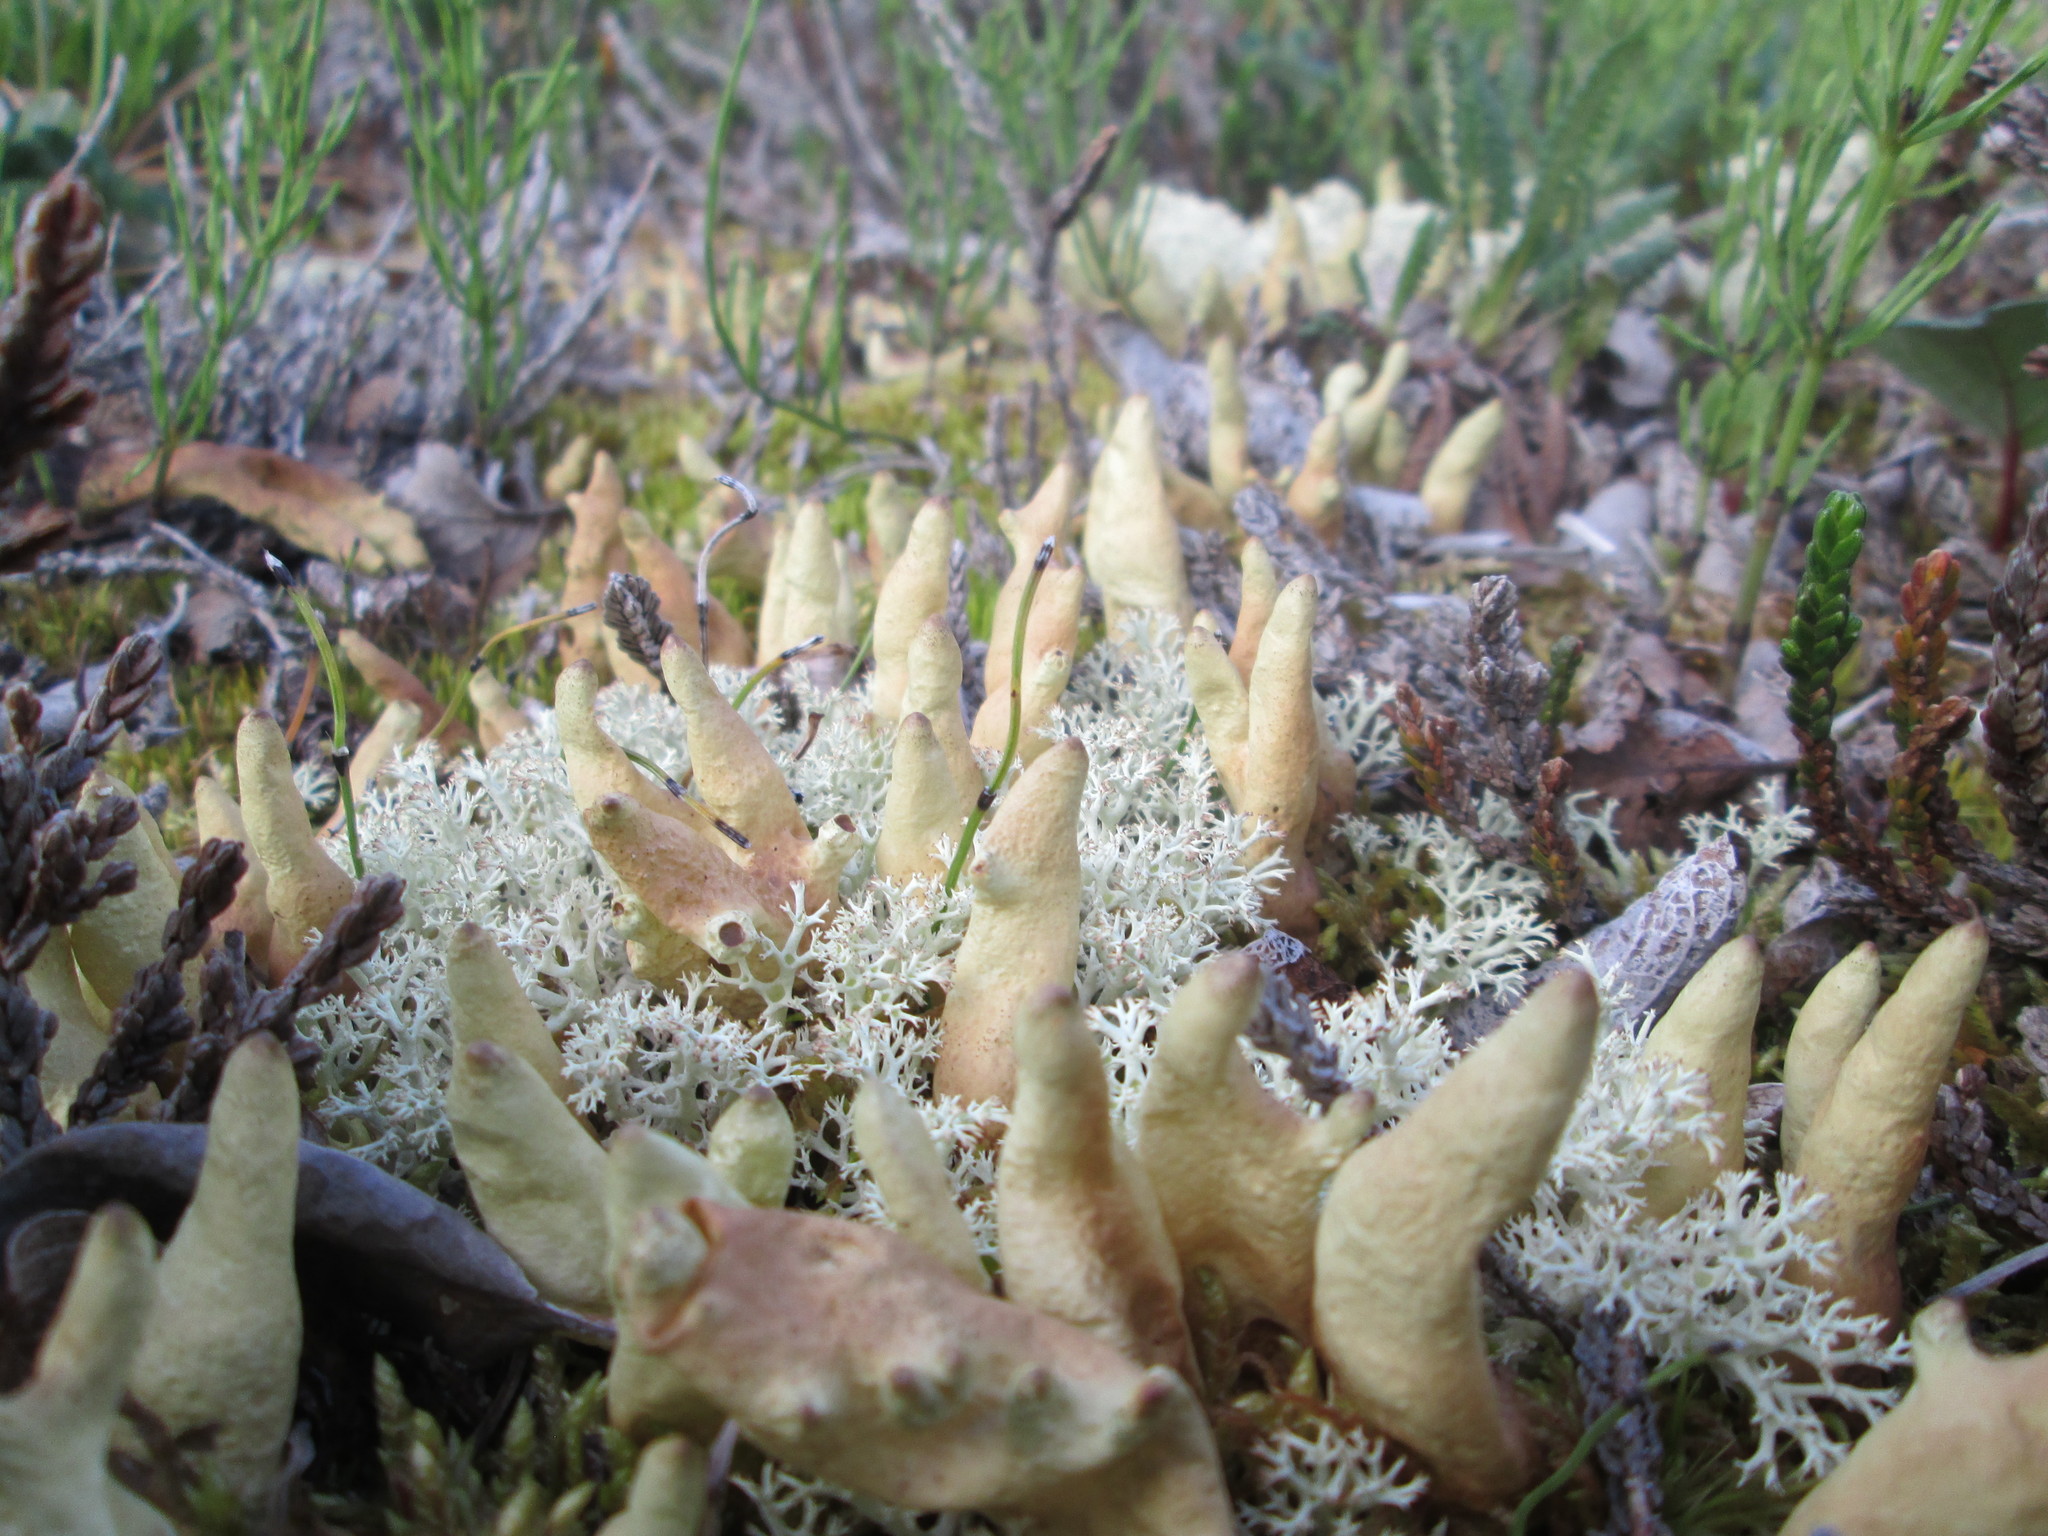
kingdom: Fungi
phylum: Ascomycota
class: Lecanoromycetes
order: Lecanorales
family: Parmeliaceae
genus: Dactylina
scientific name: Dactylina arctica
